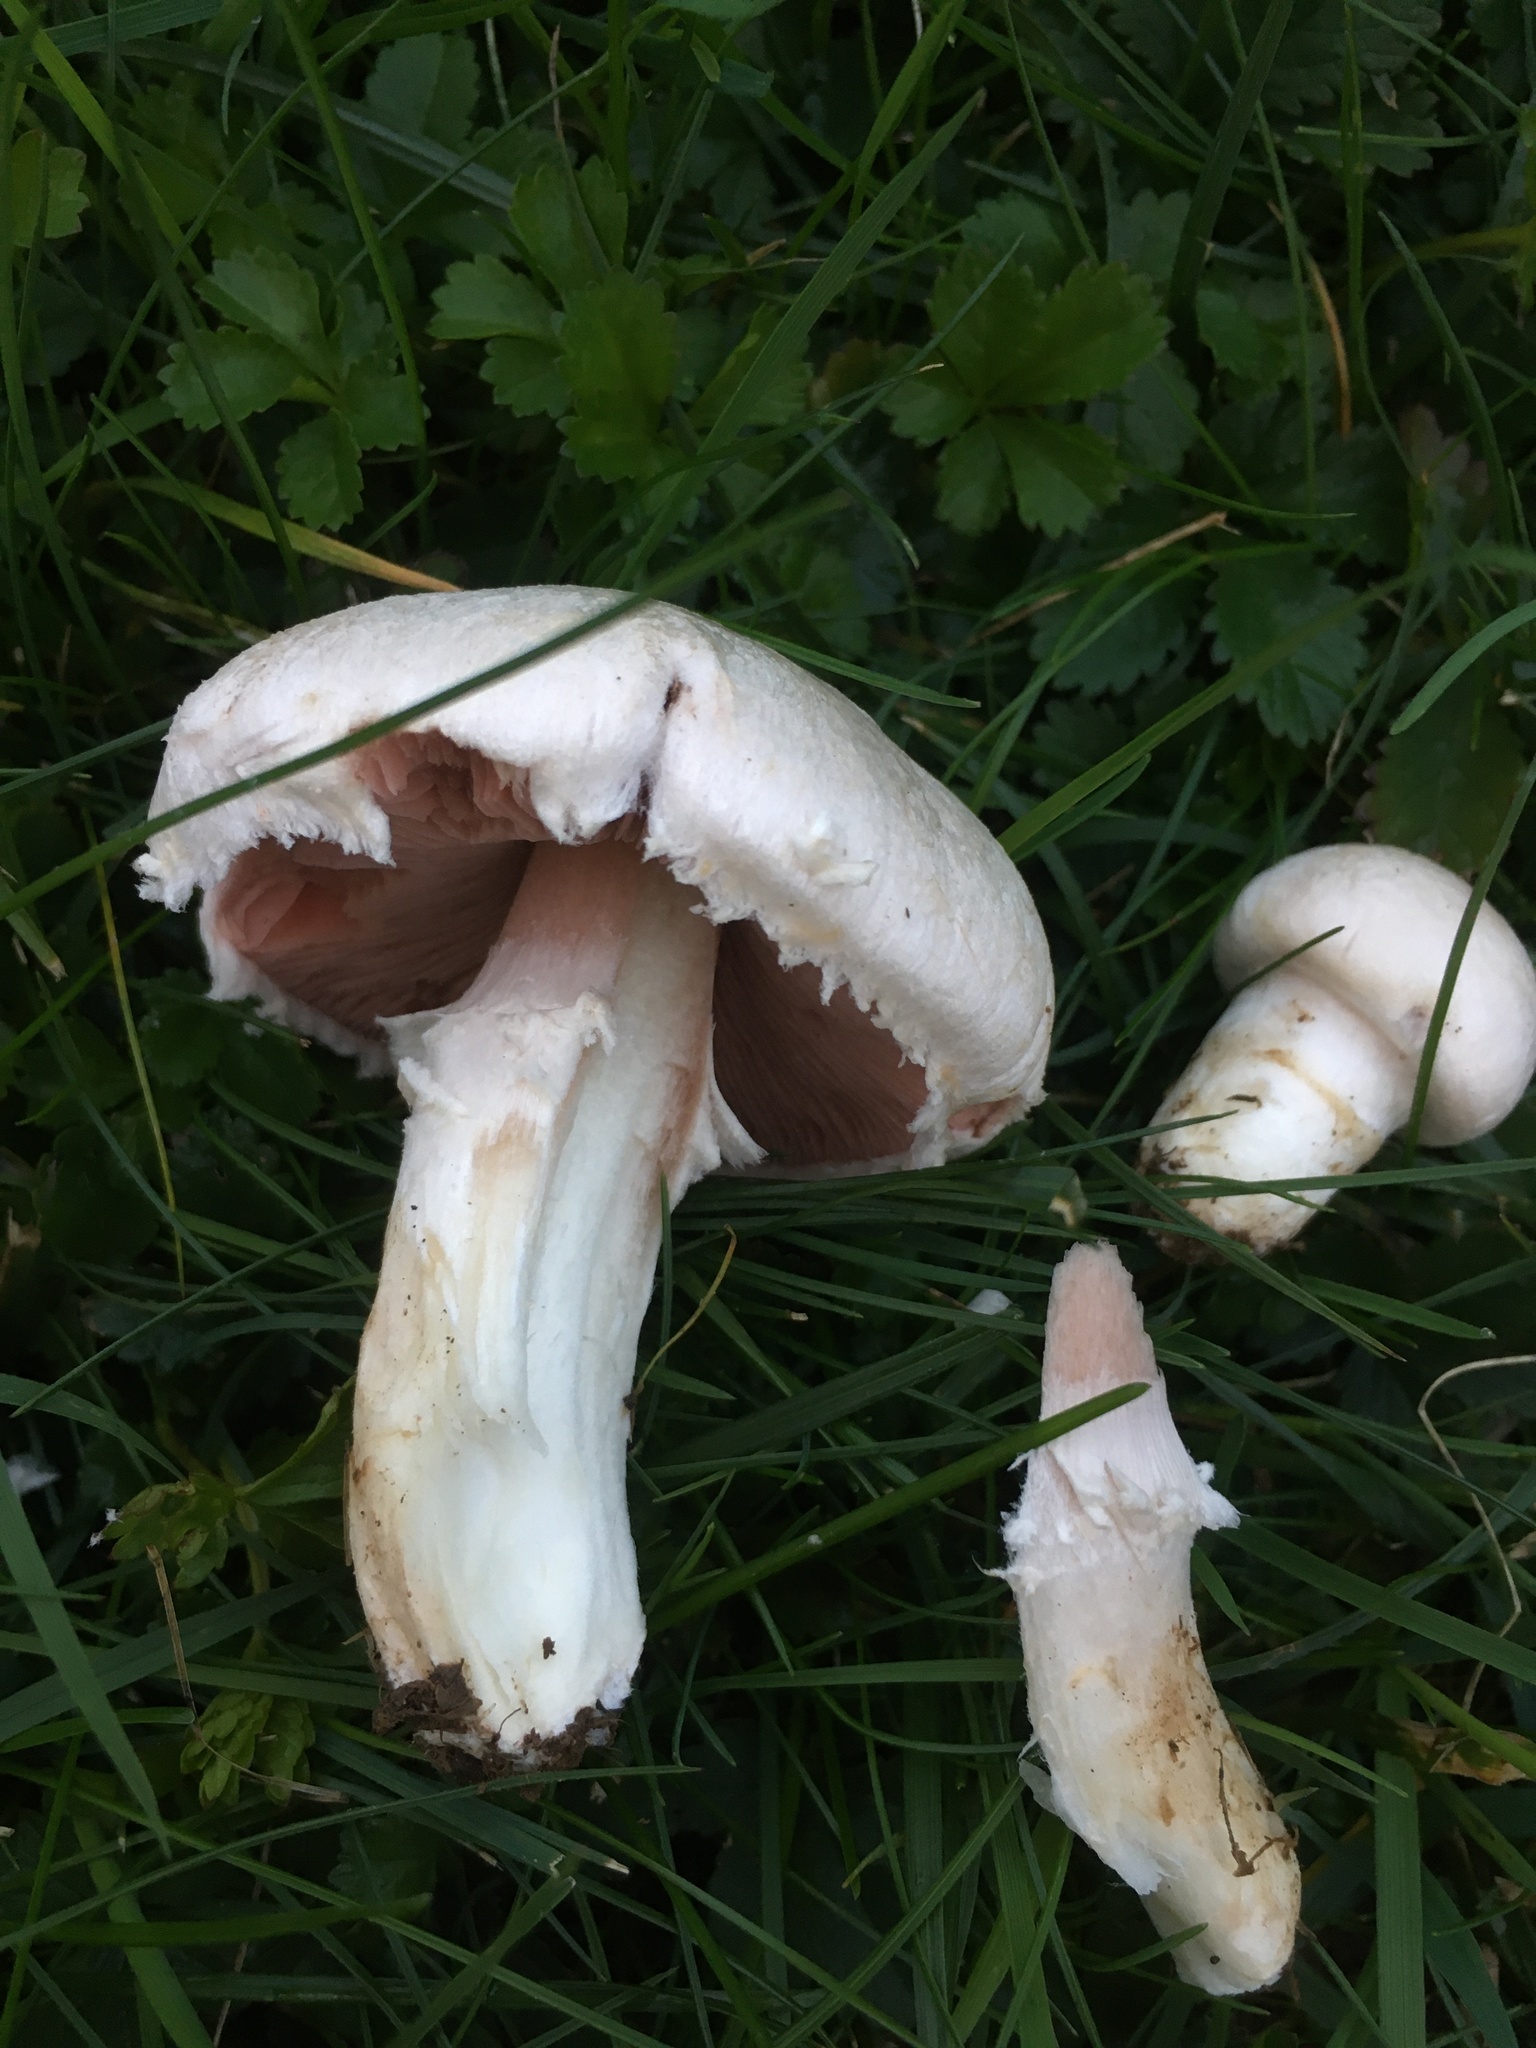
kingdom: Fungi
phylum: Basidiomycota
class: Agaricomycetes
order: Agaricales
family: Agaricaceae
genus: Agaricus
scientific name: Agaricus campestris
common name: Field mushroom
